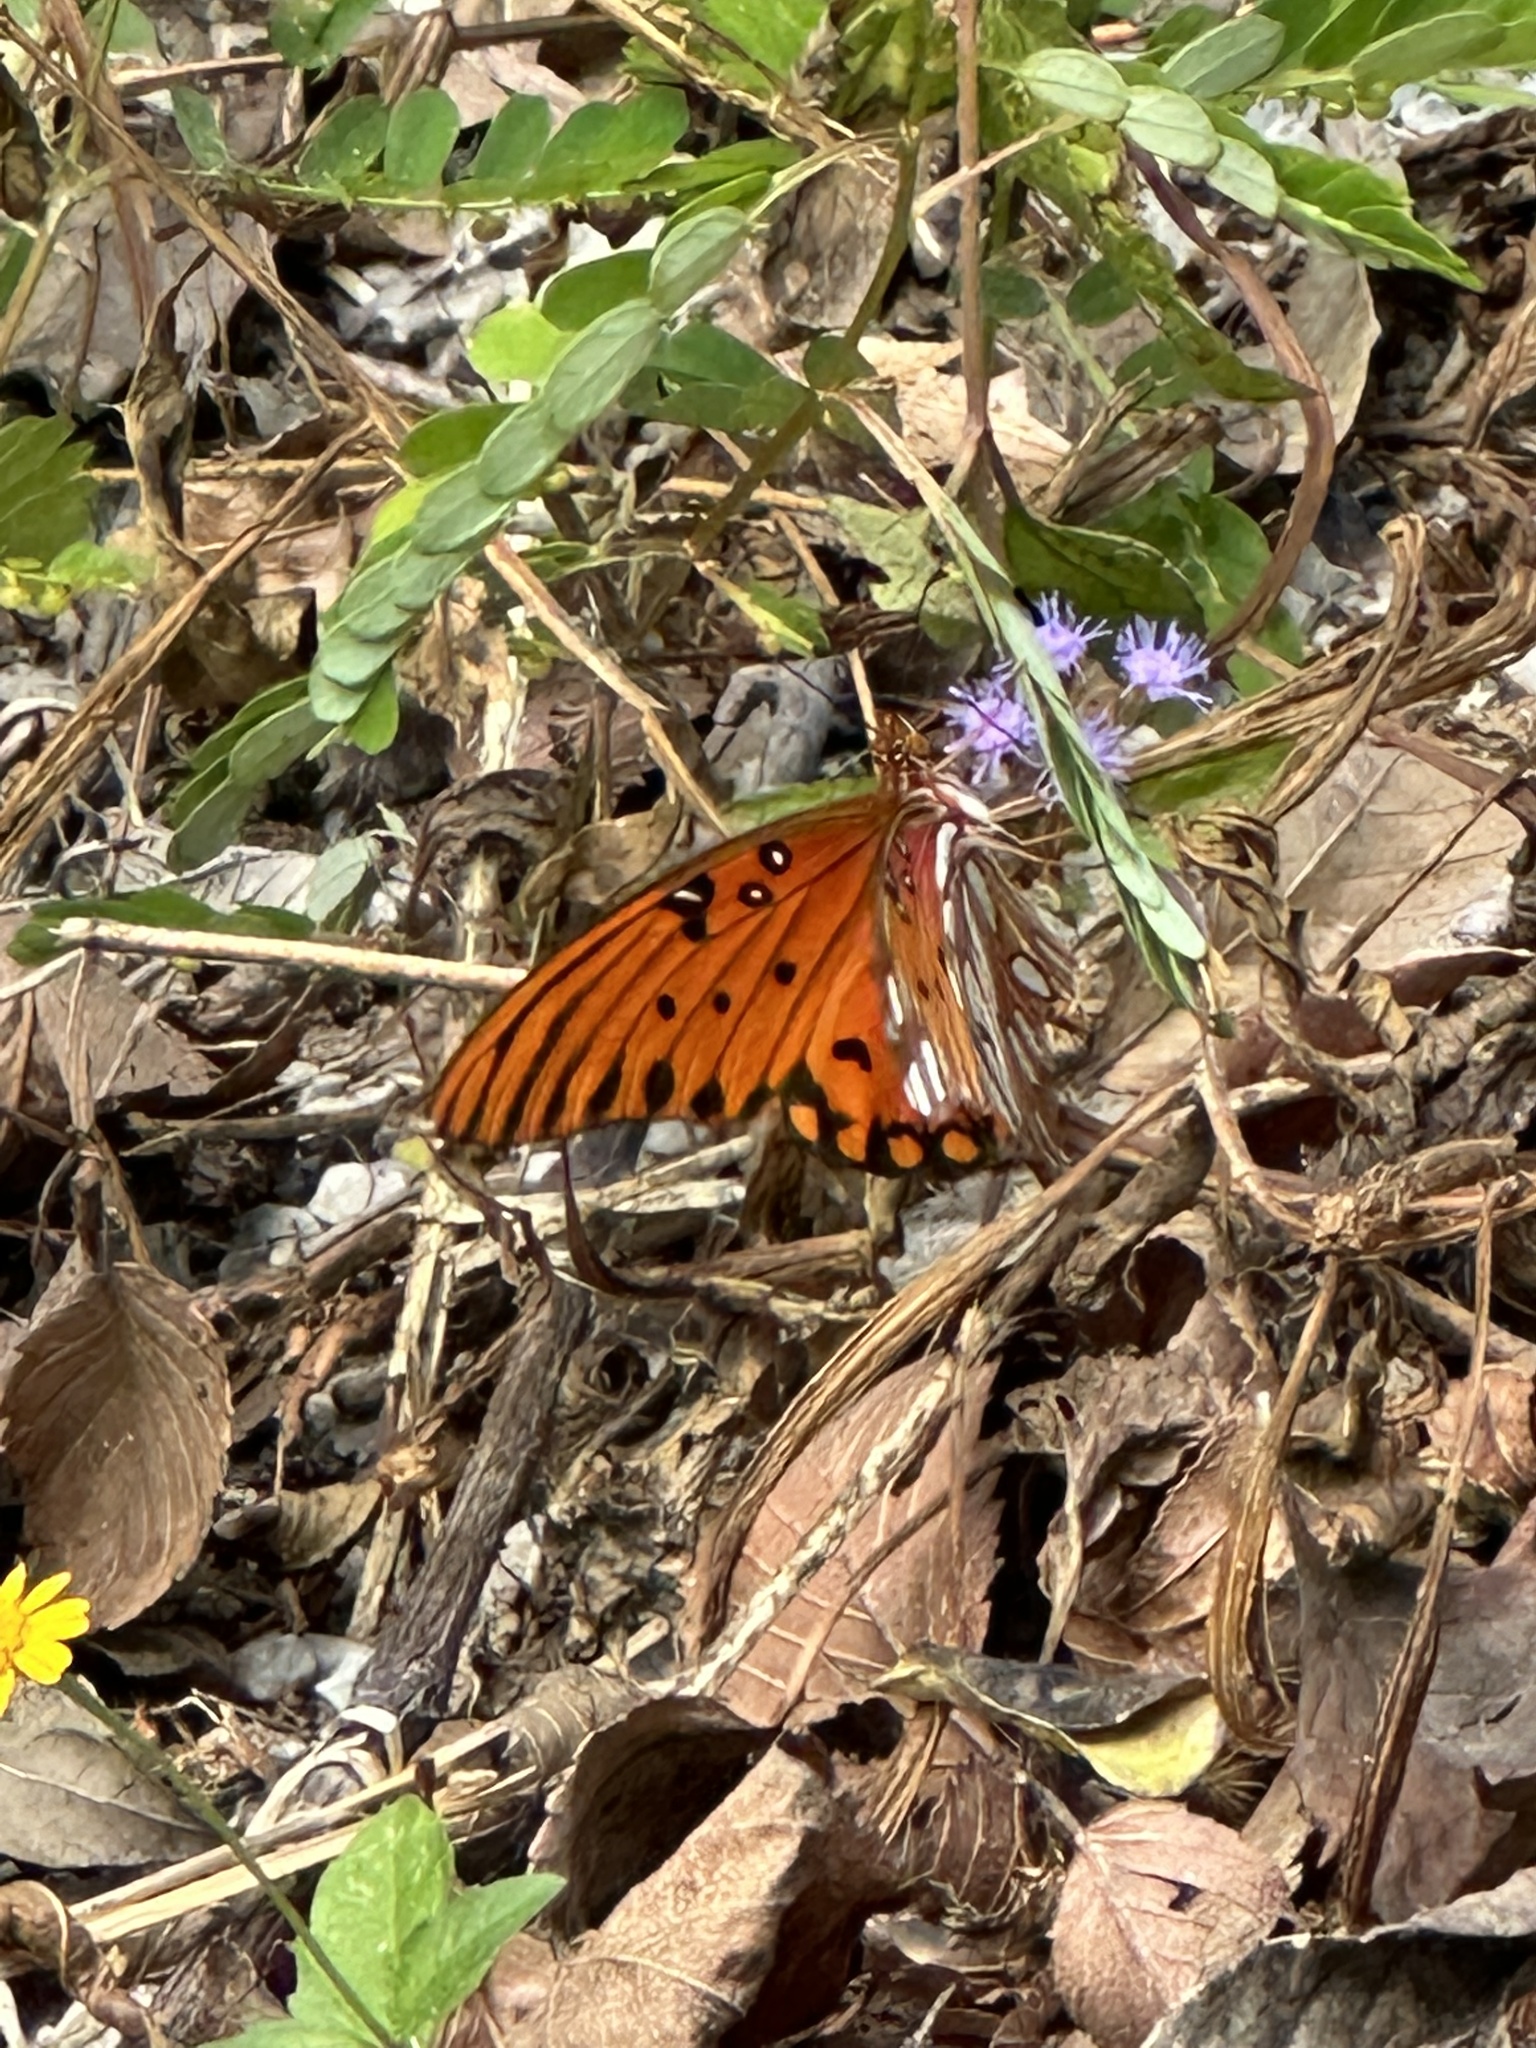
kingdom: Animalia
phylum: Arthropoda
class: Insecta
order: Lepidoptera
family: Nymphalidae
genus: Dione
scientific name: Dione vanillae
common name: Gulf fritillary
